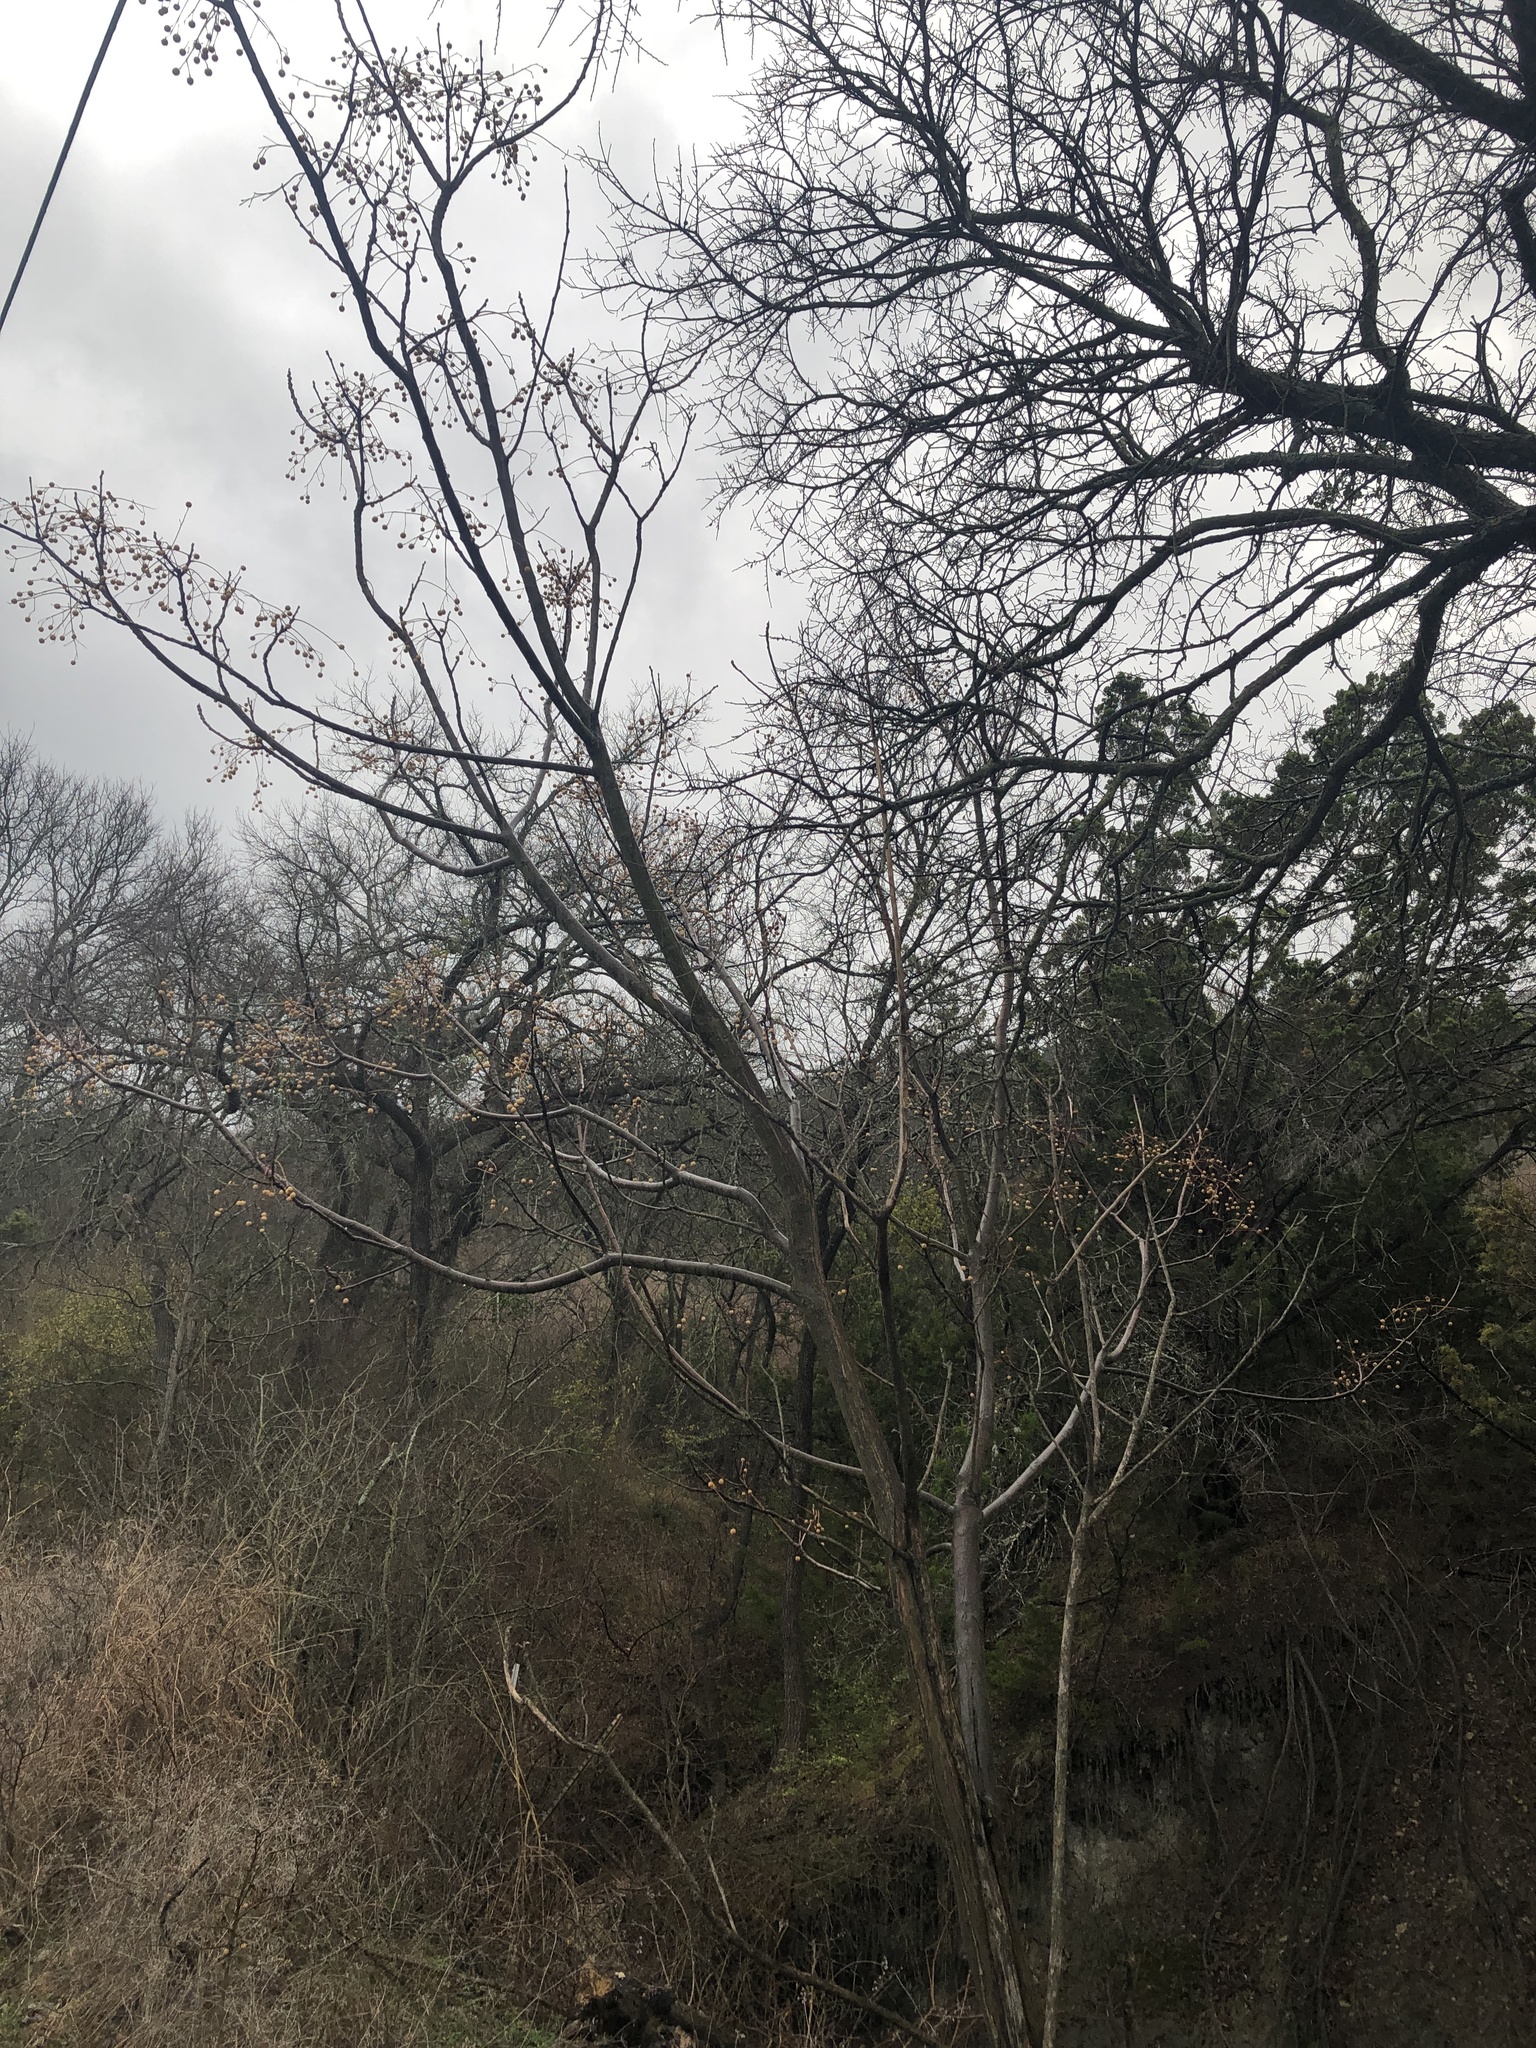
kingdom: Plantae
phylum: Tracheophyta
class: Magnoliopsida
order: Sapindales
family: Meliaceae
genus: Melia
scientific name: Melia azedarach
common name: Chinaberrytree
